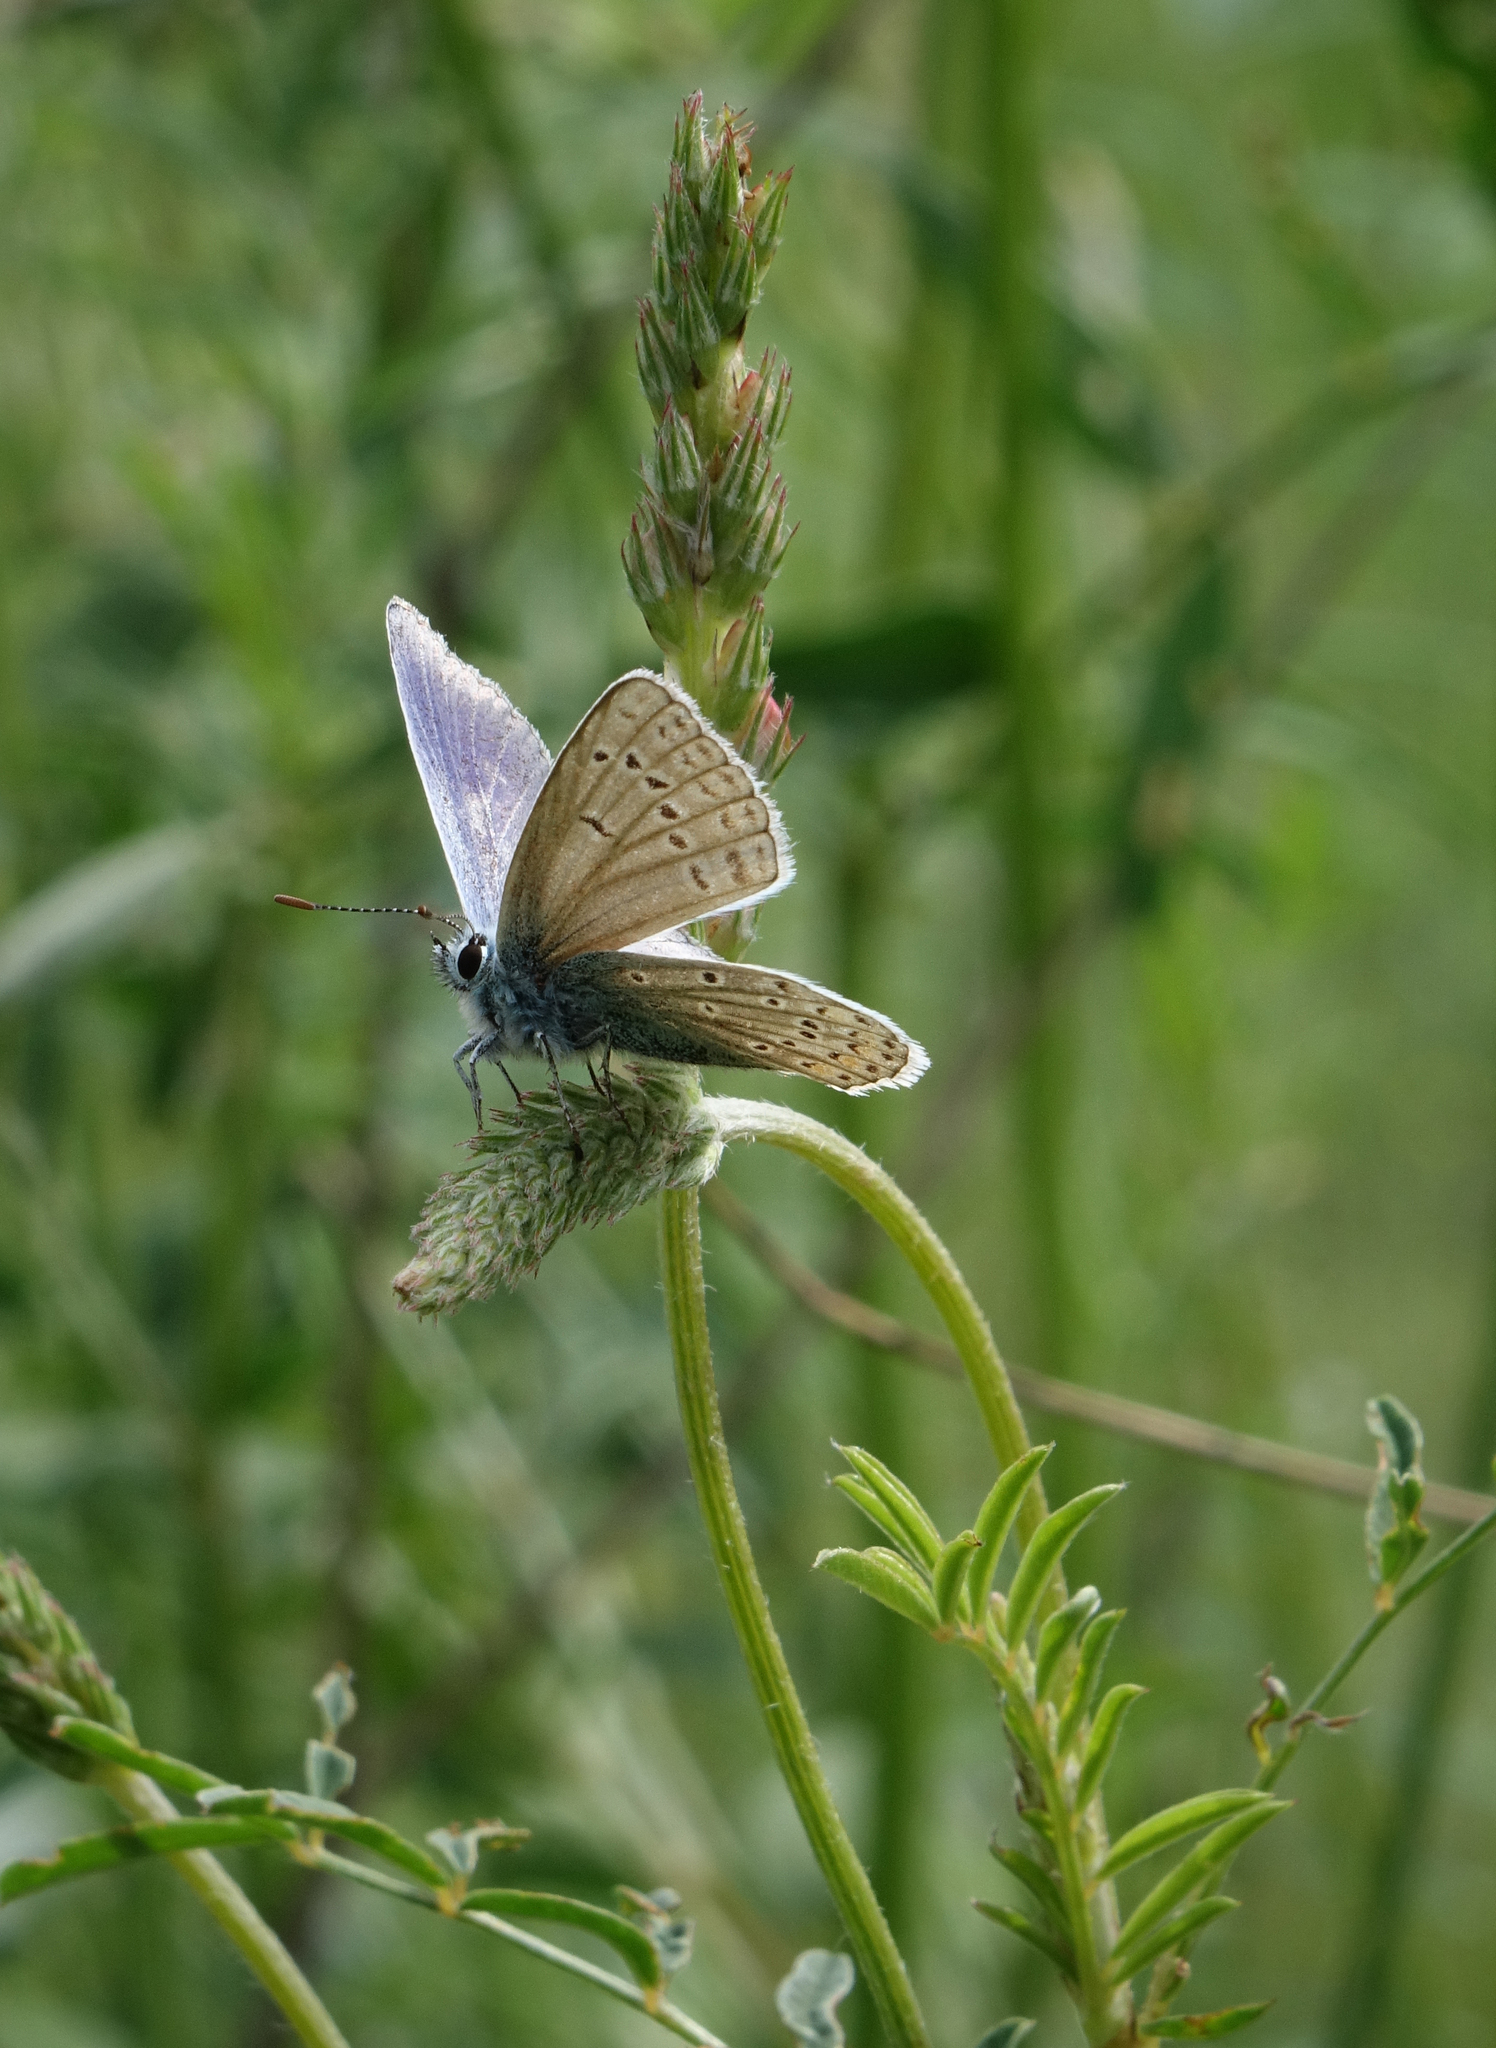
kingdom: Animalia
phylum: Arthropoda
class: Insecta
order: Lepidoptera
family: Lycaenidae
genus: Polyommatus
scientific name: Polyommatus thersites
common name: Chapman's blue
